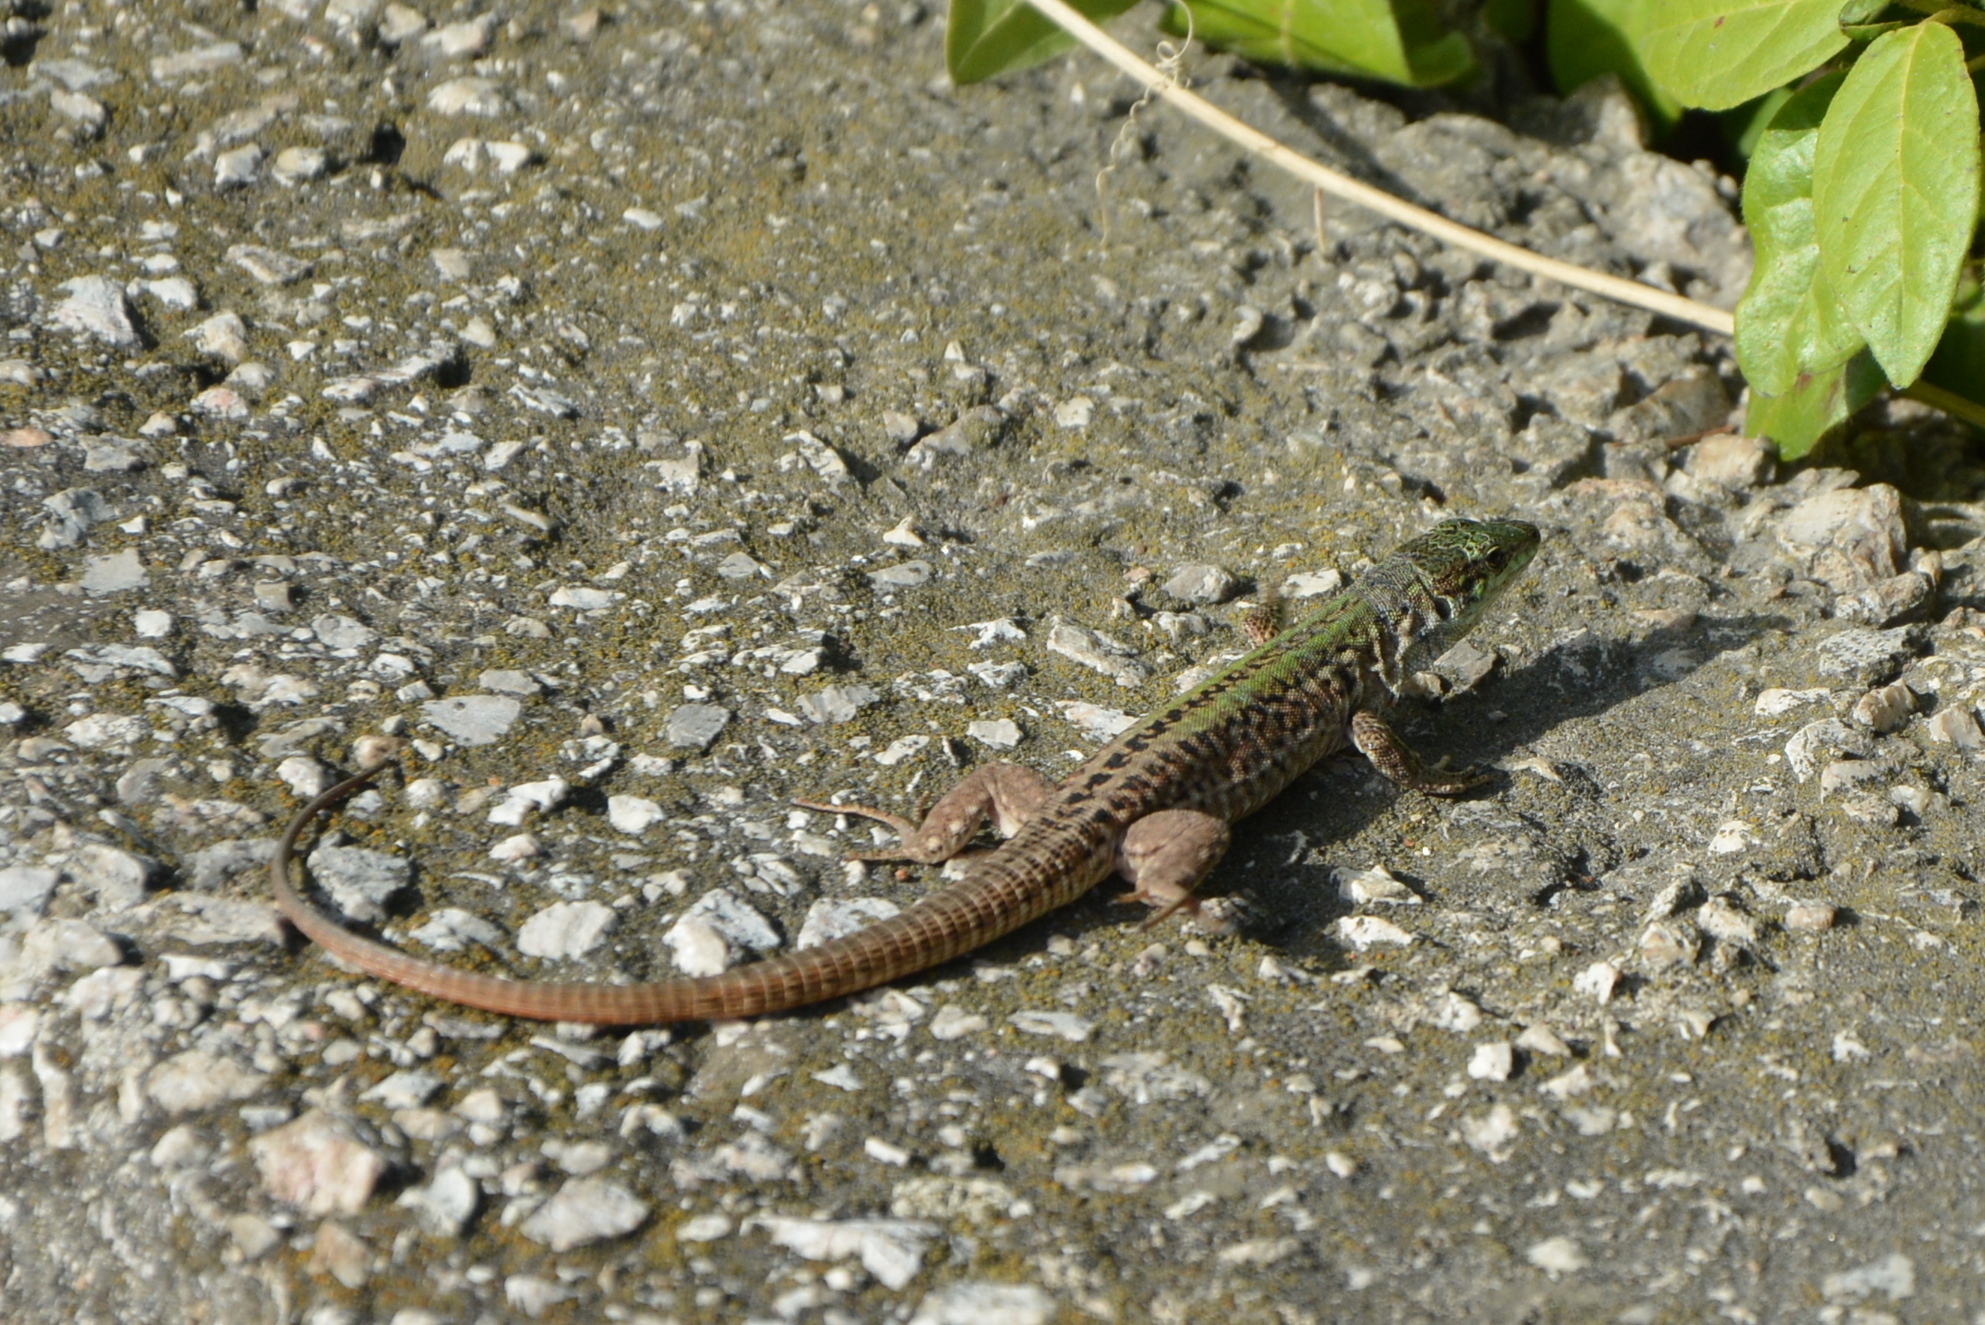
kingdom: Animalia
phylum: Chordata
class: Squamata
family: Lacertidae
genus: Podarcis
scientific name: Podarcis siculus
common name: Italian wall lizard
